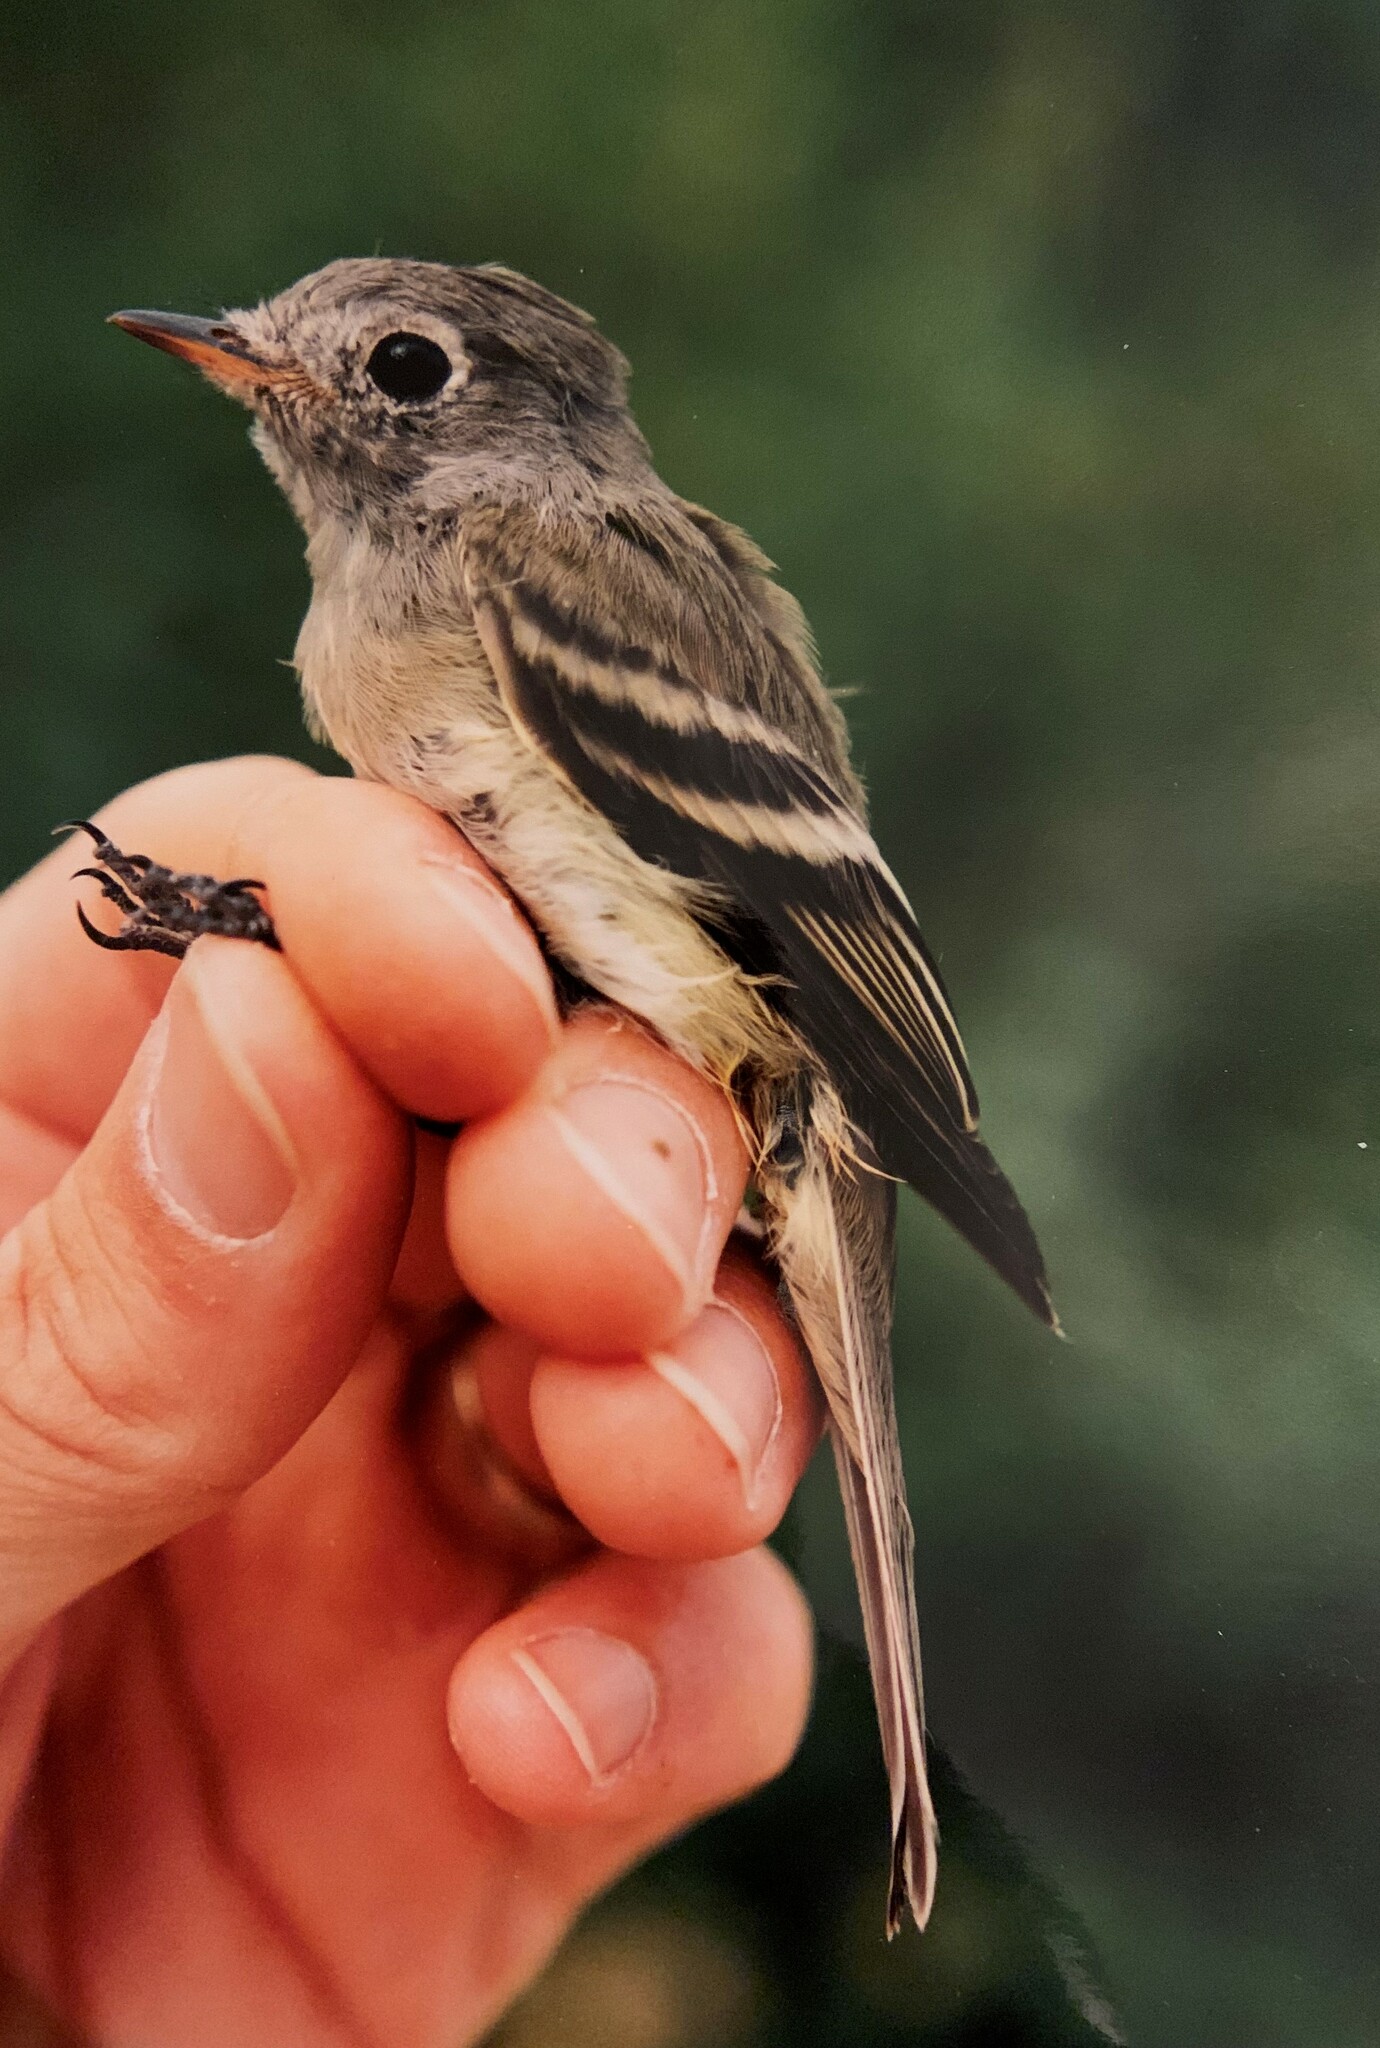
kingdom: Animalia
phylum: Chordata
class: Aves
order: Passeriformes
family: Tyrannidae
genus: Empidonax
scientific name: Empidonax hammondii
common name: Hammond's flycatcher
